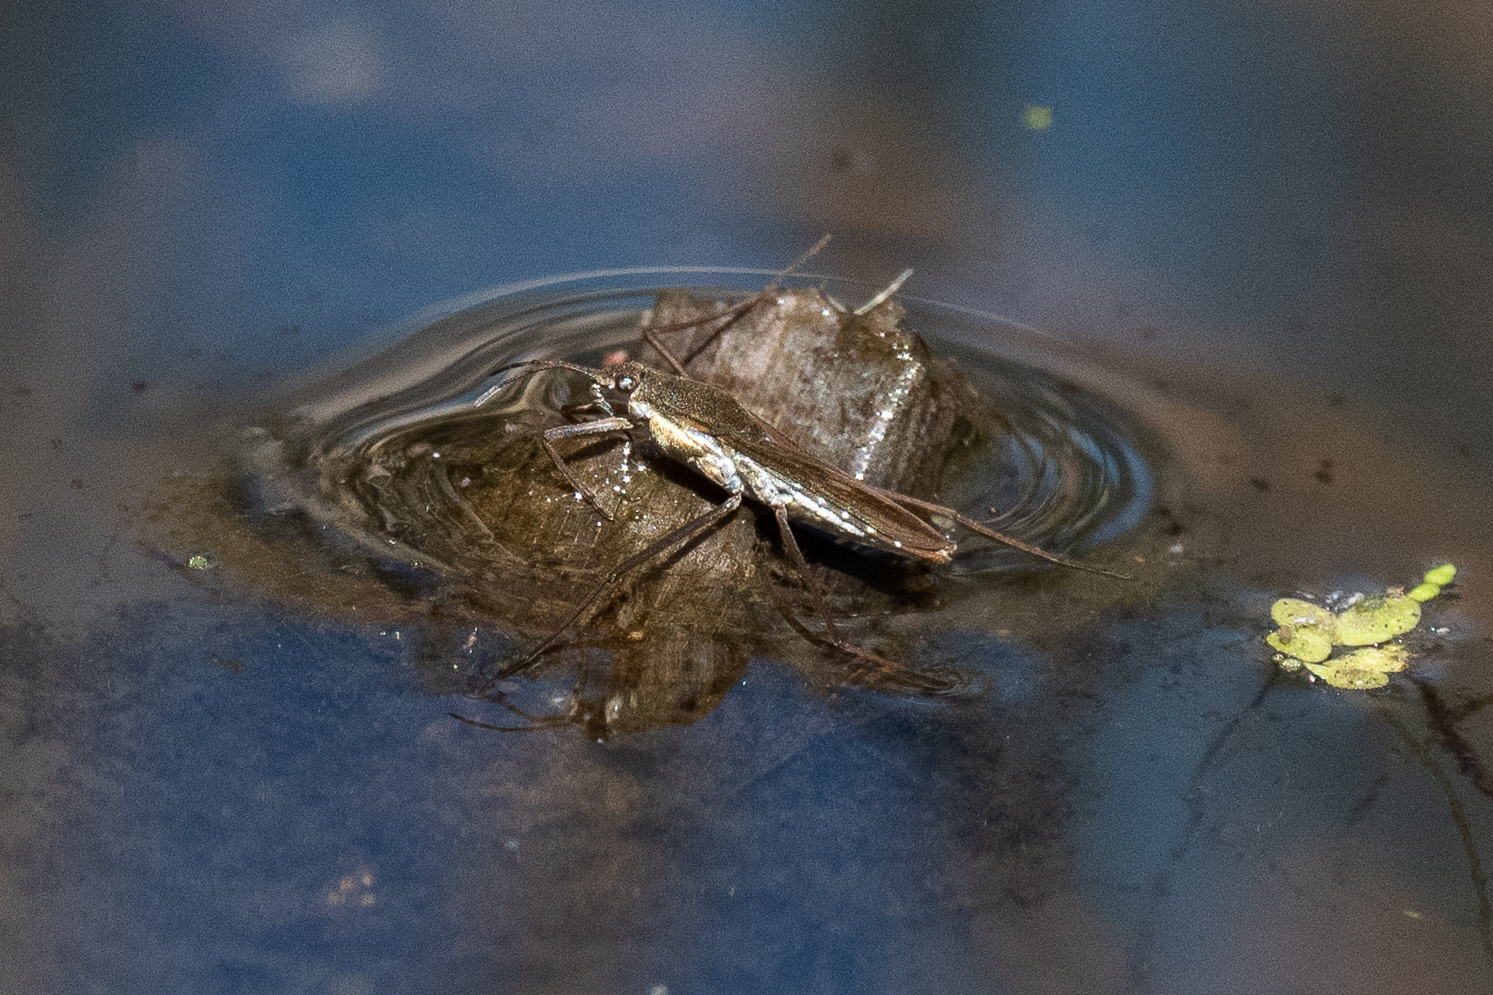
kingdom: Animalia
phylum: Arthropoda
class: Insecta
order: Hemiptera
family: Gerridae
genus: Gerris
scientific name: Gerris
